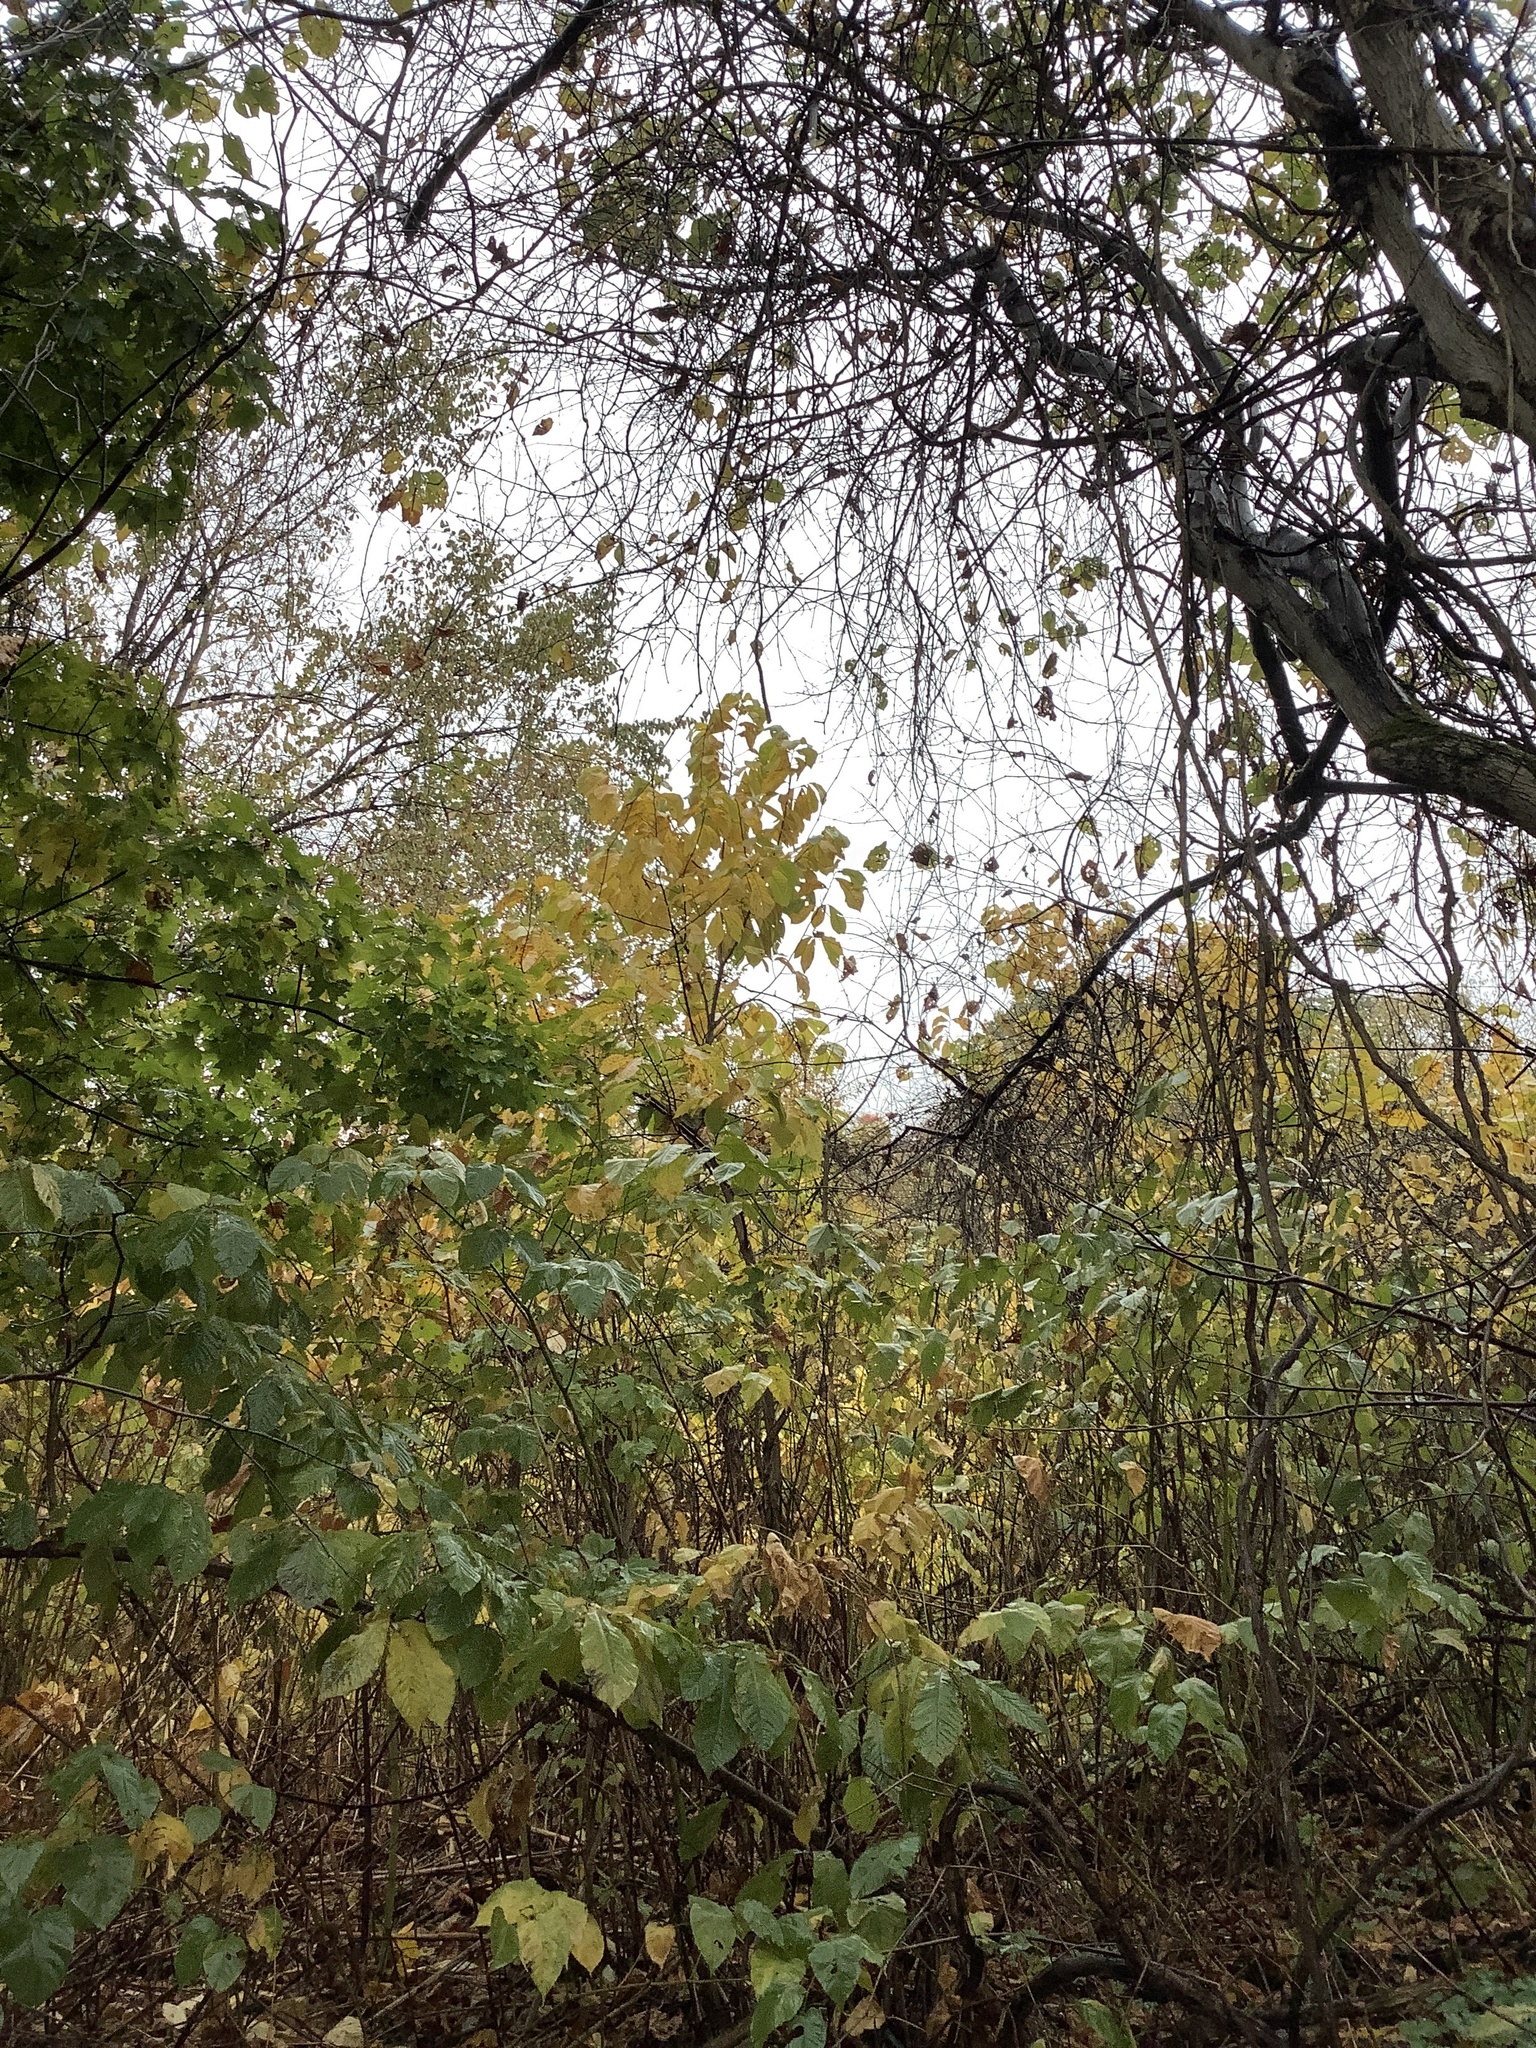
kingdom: Plantae
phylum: Tracheophyta
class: Magnoliopsida
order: Magnoliales
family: Annonaceae
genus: Asimina
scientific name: Asimina triloba
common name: Dog-banana
